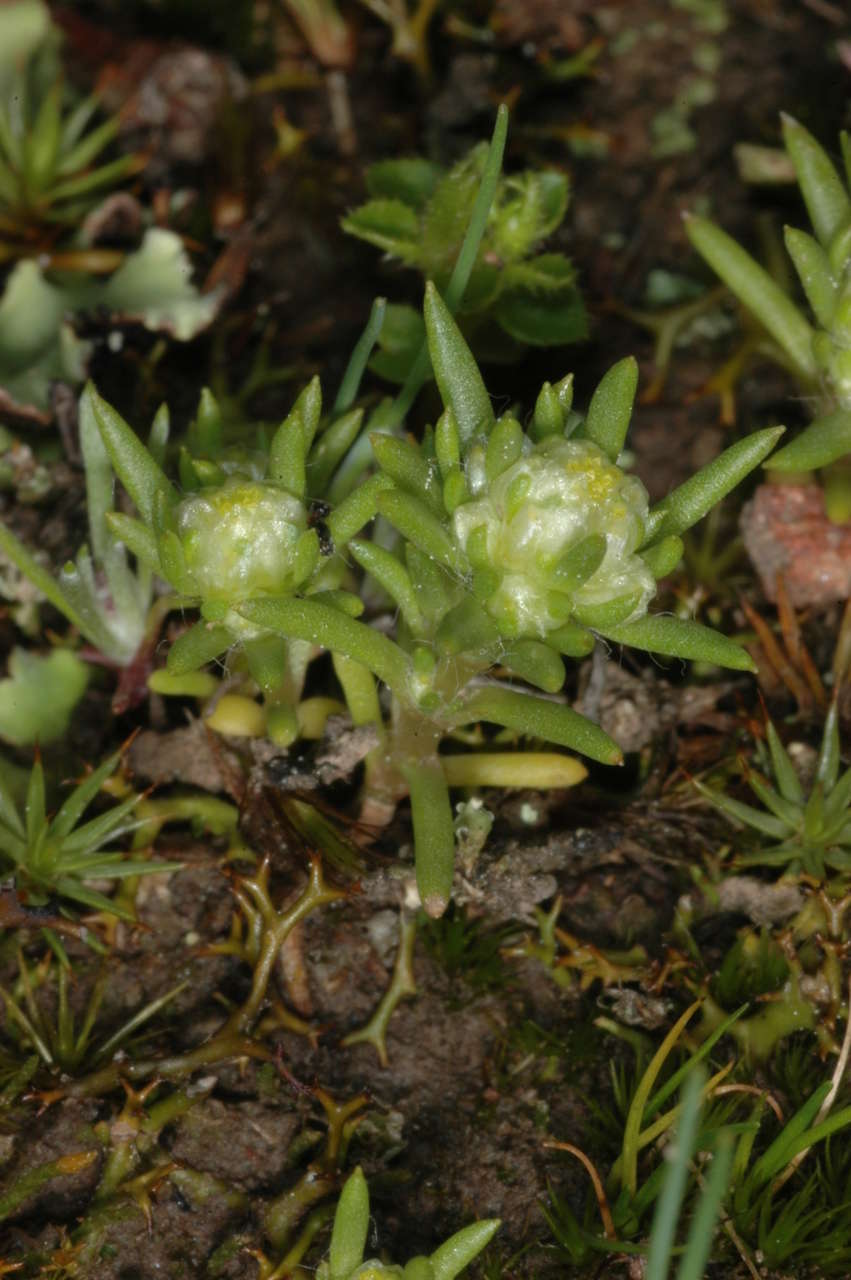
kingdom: Plantae
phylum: Tracheophyta
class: Magnoliopsida
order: Asterales
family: Asteraceae
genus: Siloxerus
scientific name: Siloxerus multiflorus
